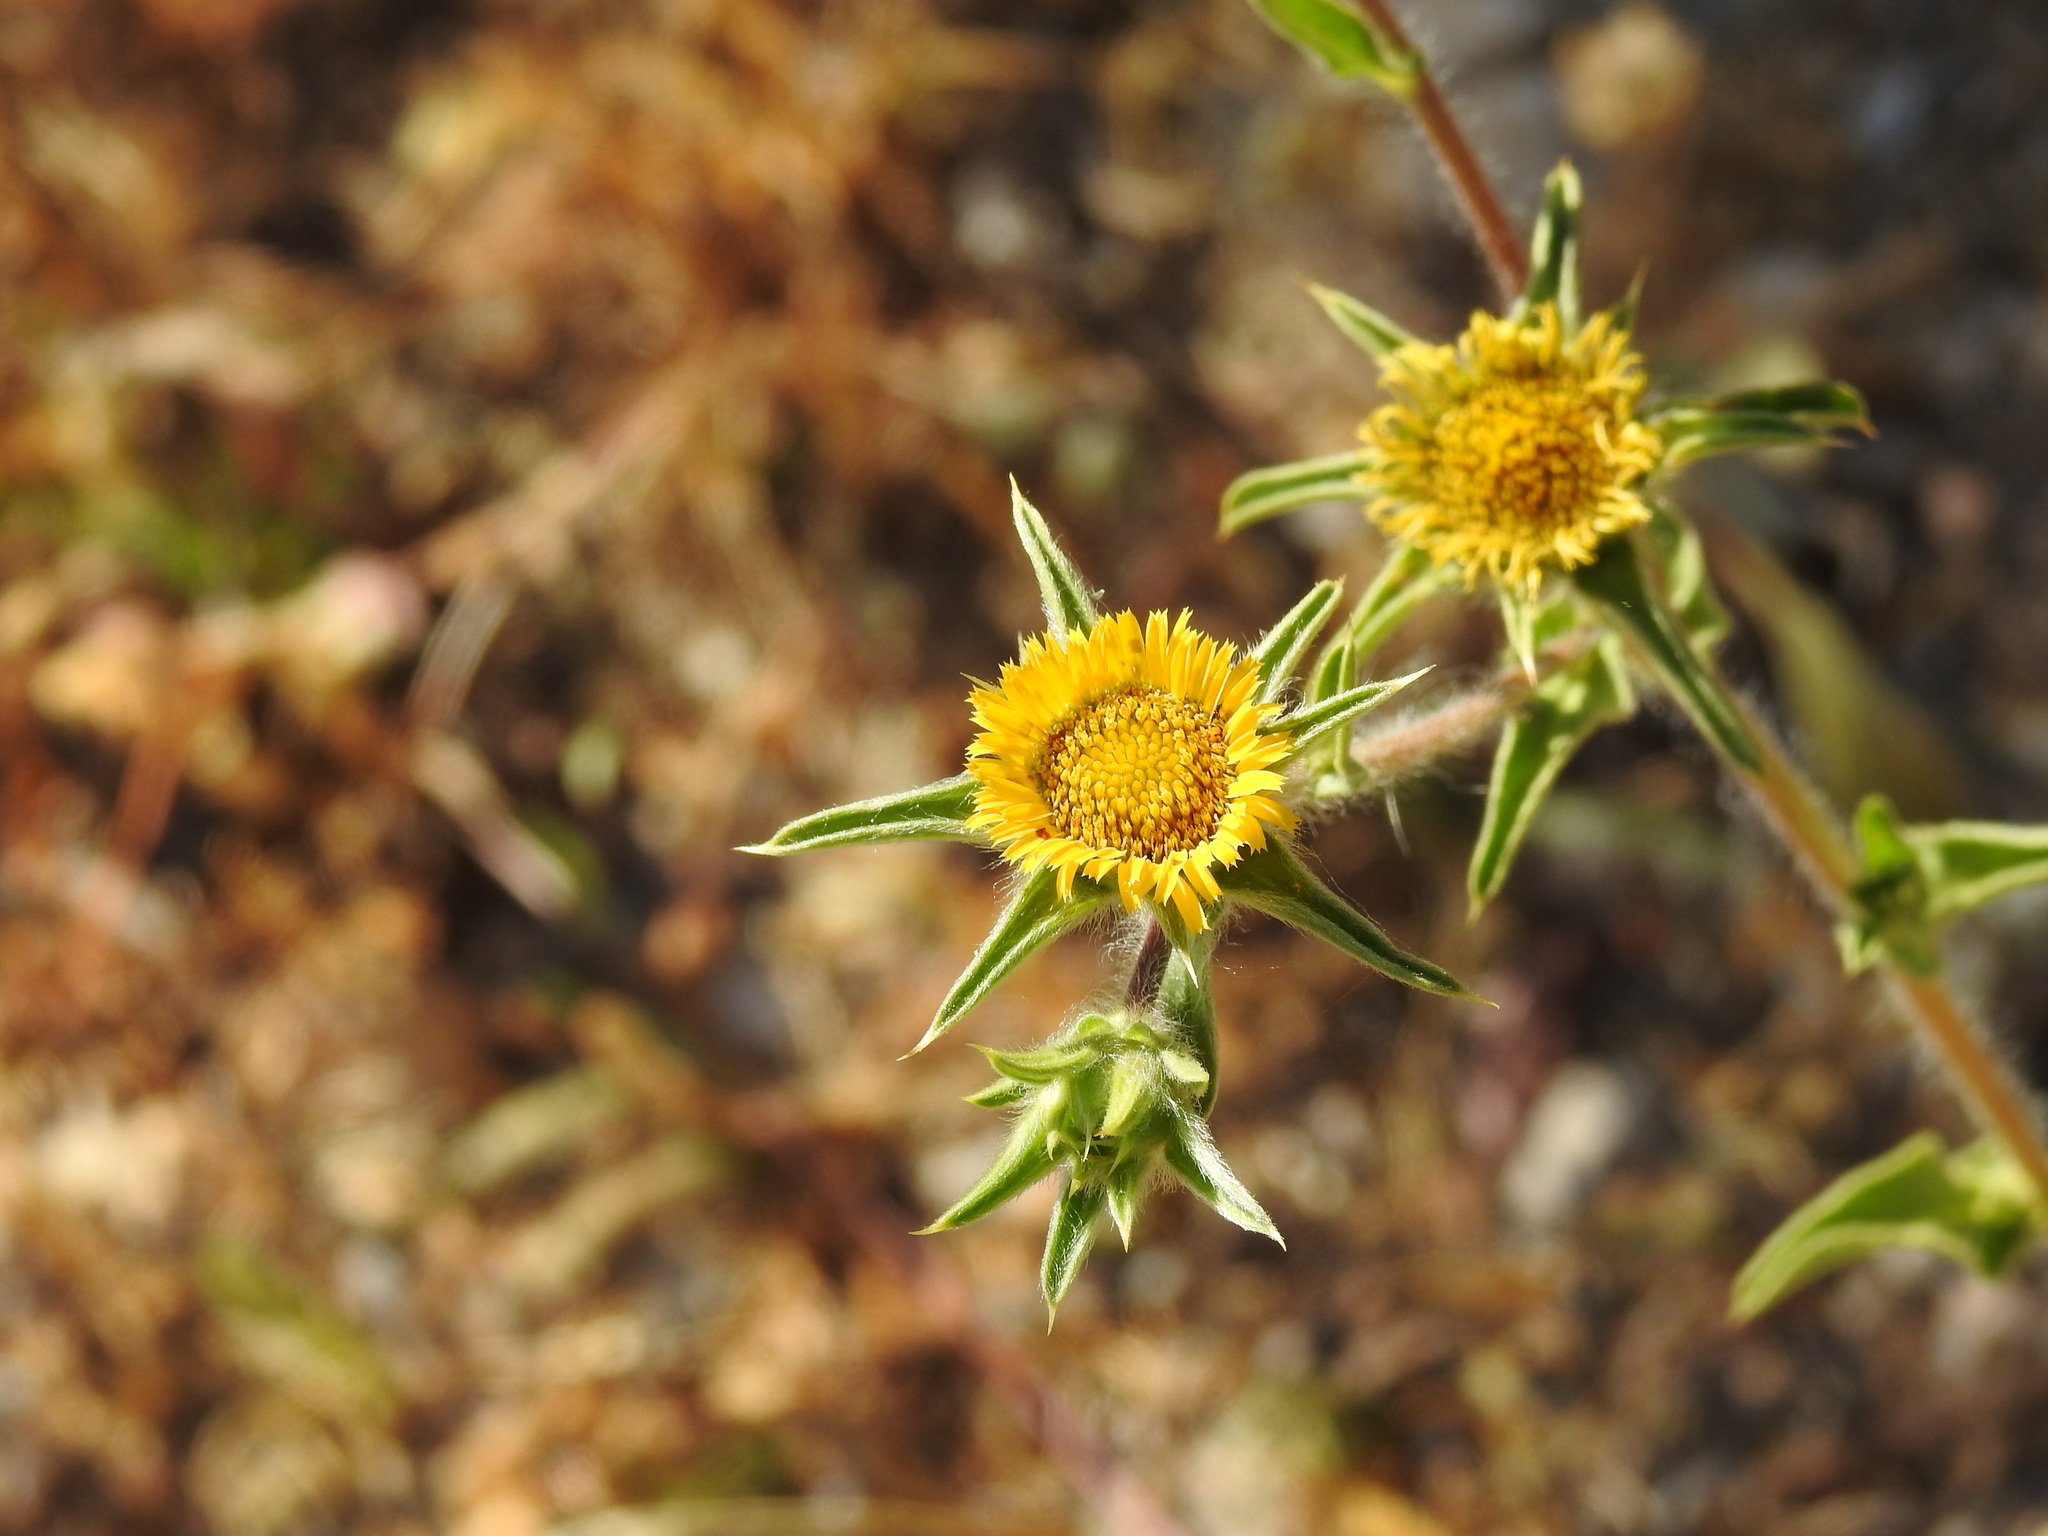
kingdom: Plantae
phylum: Tracheophyta
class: Magnoliopsida
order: Asterales
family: Asteraceae
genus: Pallenis
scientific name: Pallenis spinosa
